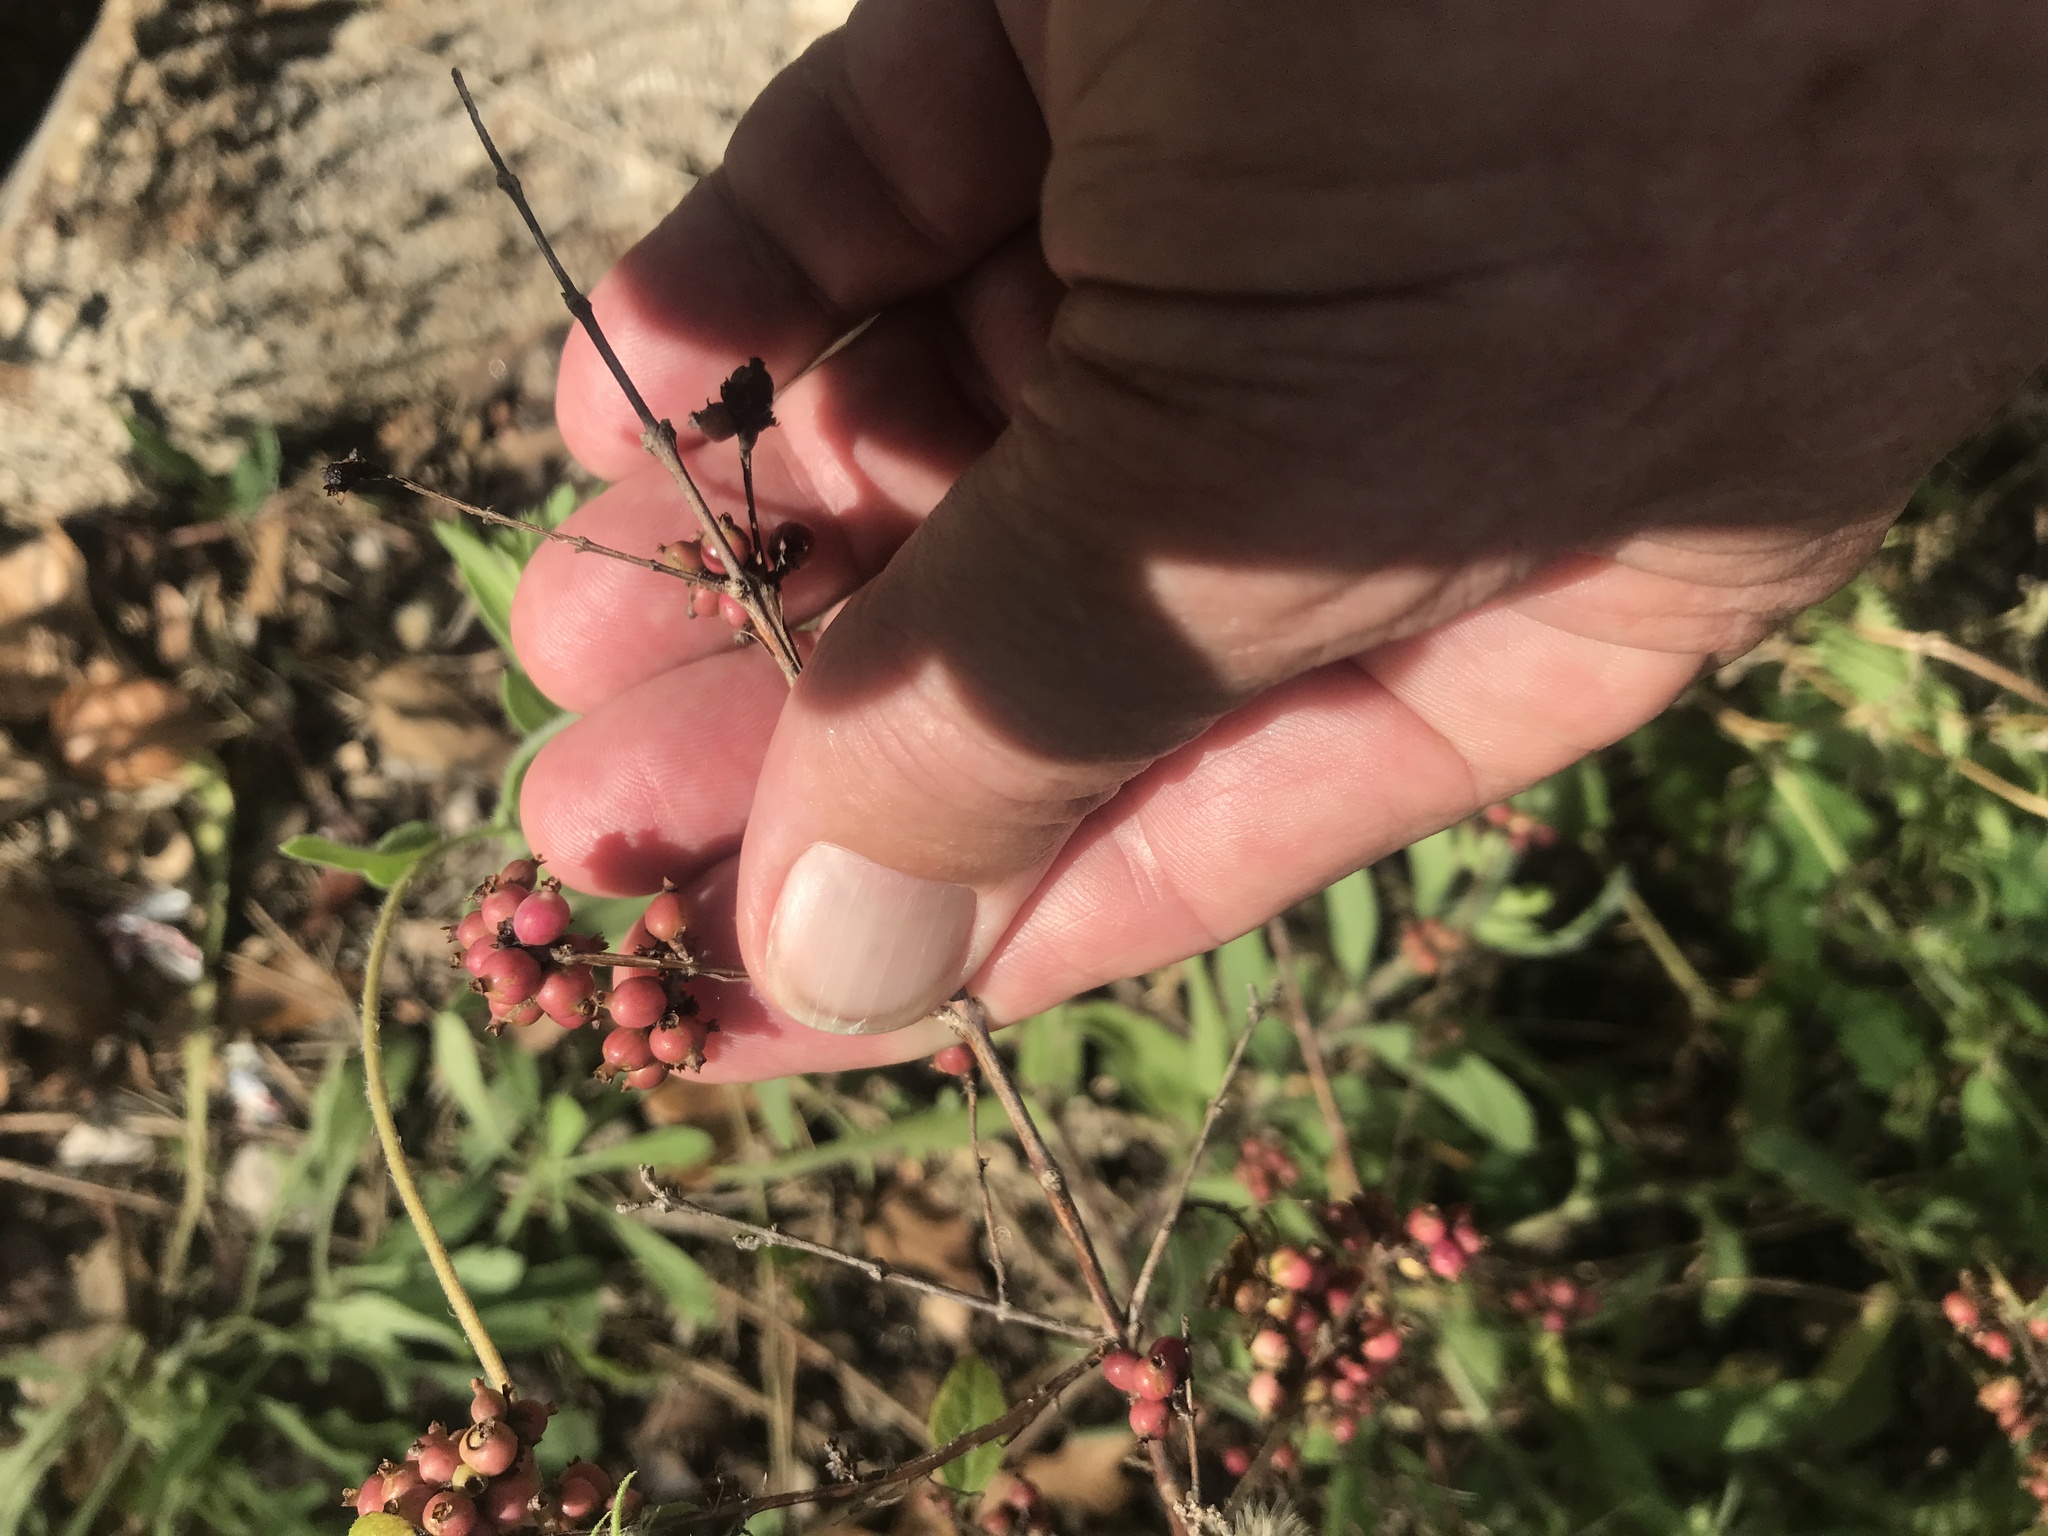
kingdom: Plantae
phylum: Tracheophyta
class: Magnoliopsida
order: Dipsacales
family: Caprifoliaceae
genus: Symphoricarpos
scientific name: Symphoricarpos orbiculatus
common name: Coralberry
